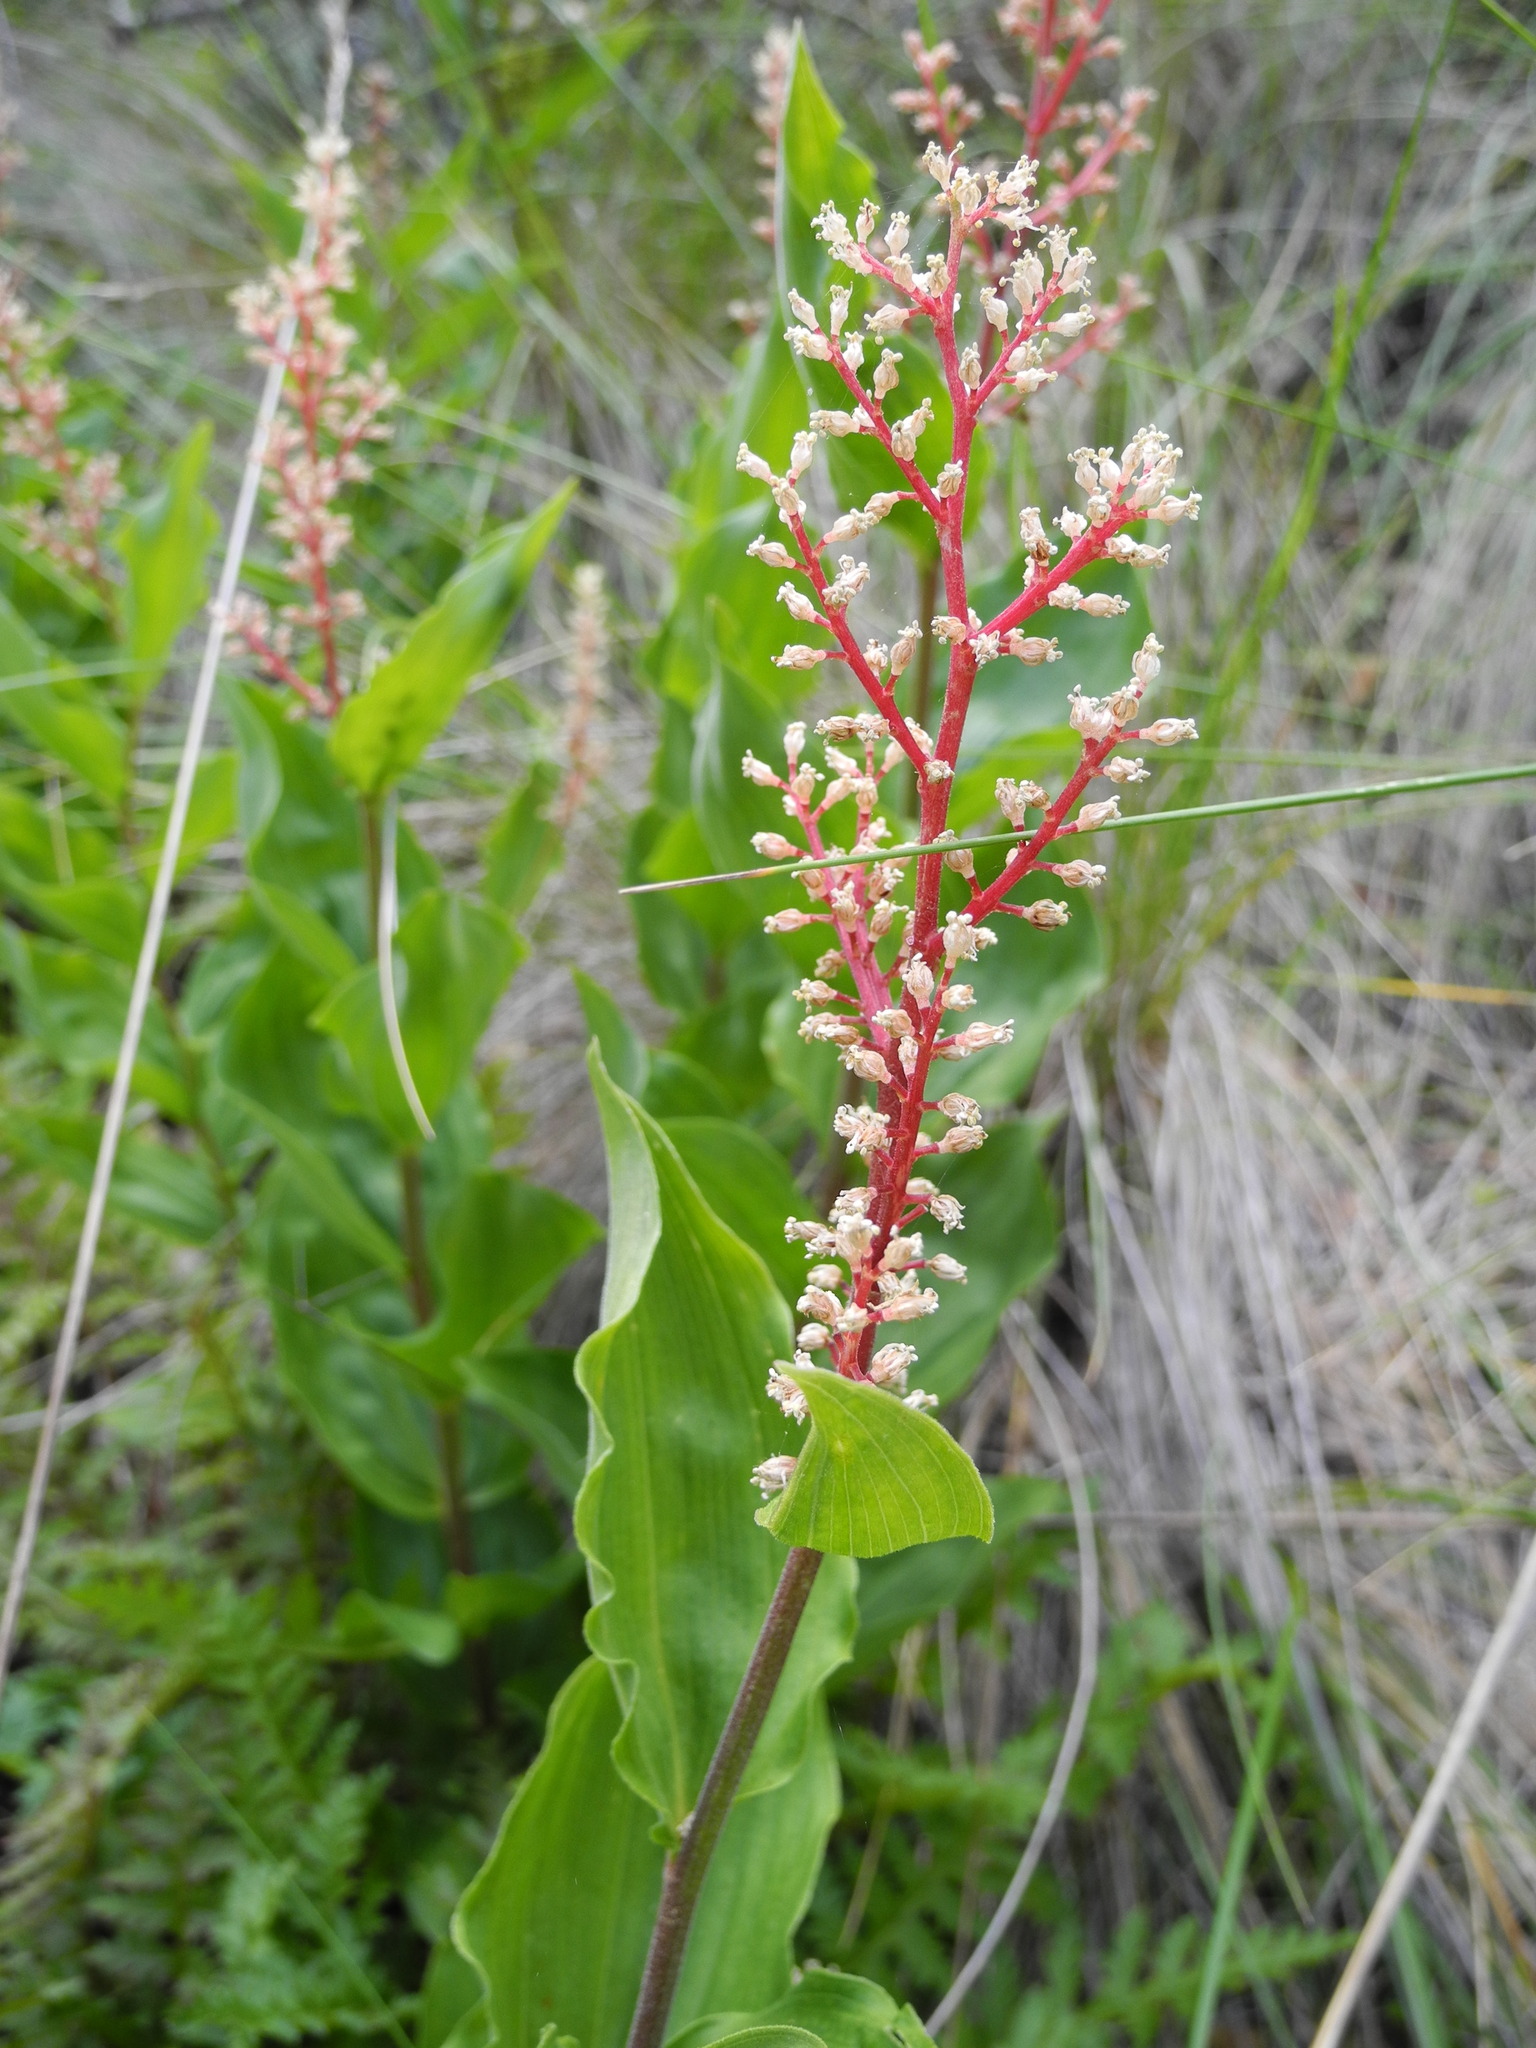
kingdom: Plantae
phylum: Tracheophyta
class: Liliopsida
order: Asparagales
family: Asparagaceae
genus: Maianthemum
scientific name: Maianthemum racemosum
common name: False spikenard
